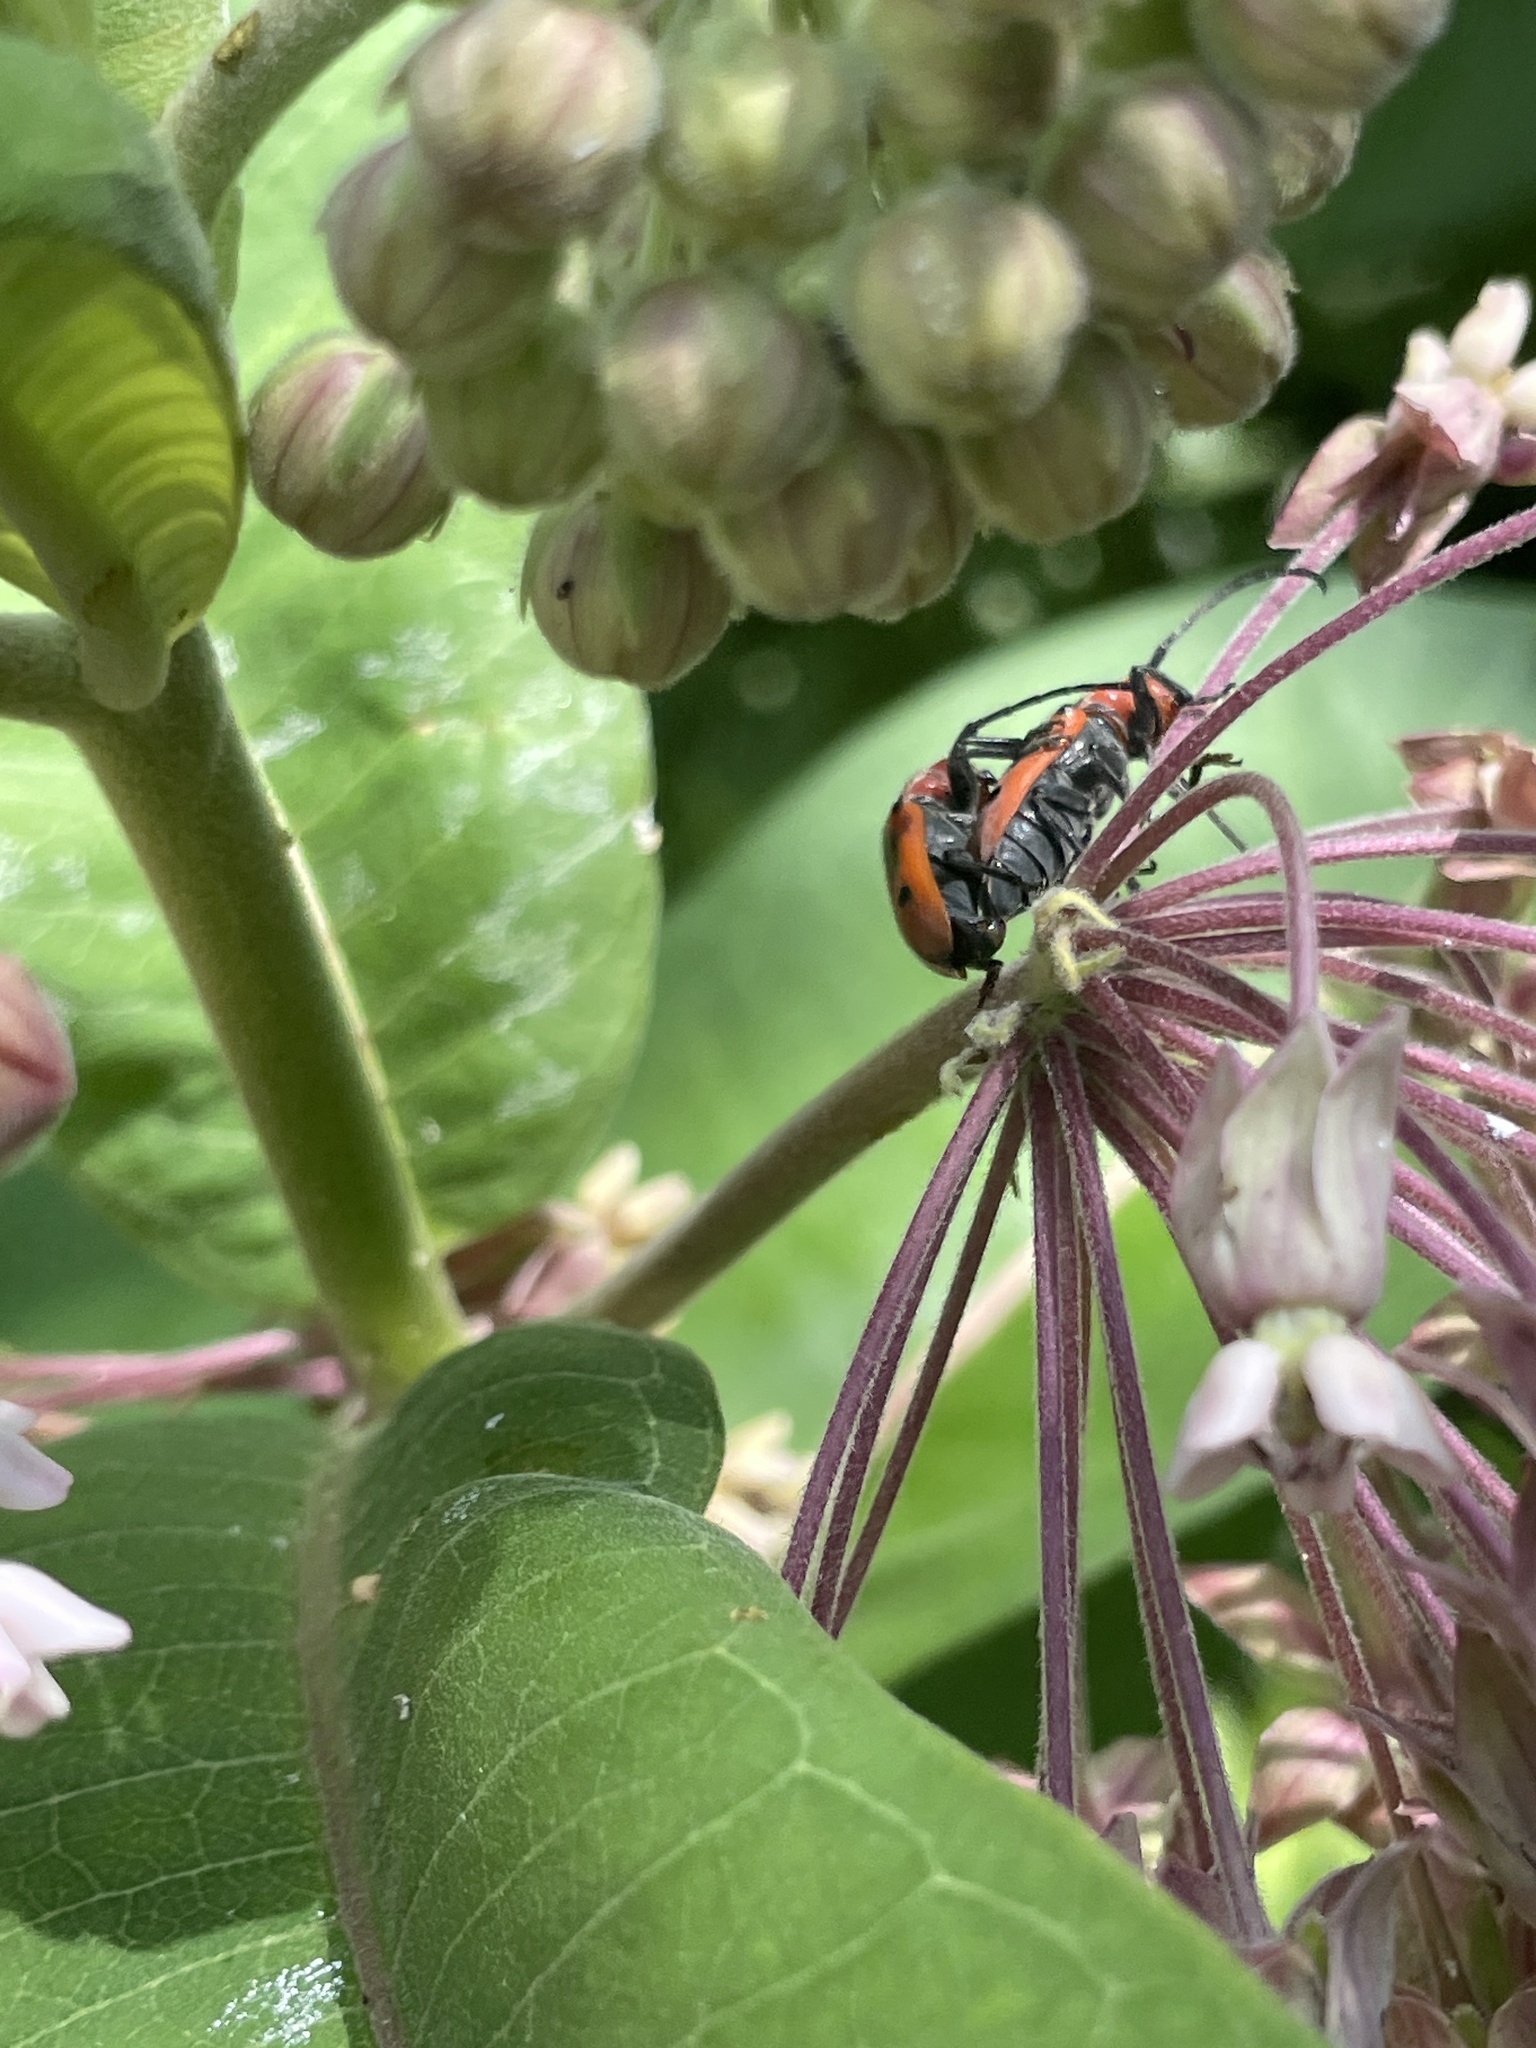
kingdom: Animalia
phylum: Arthropoda
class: Insecta
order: Coleoptera
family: Cerambycidae
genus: Tetraopes
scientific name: Tetraopes tetrophthalmus
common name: Red milkweed beetle
